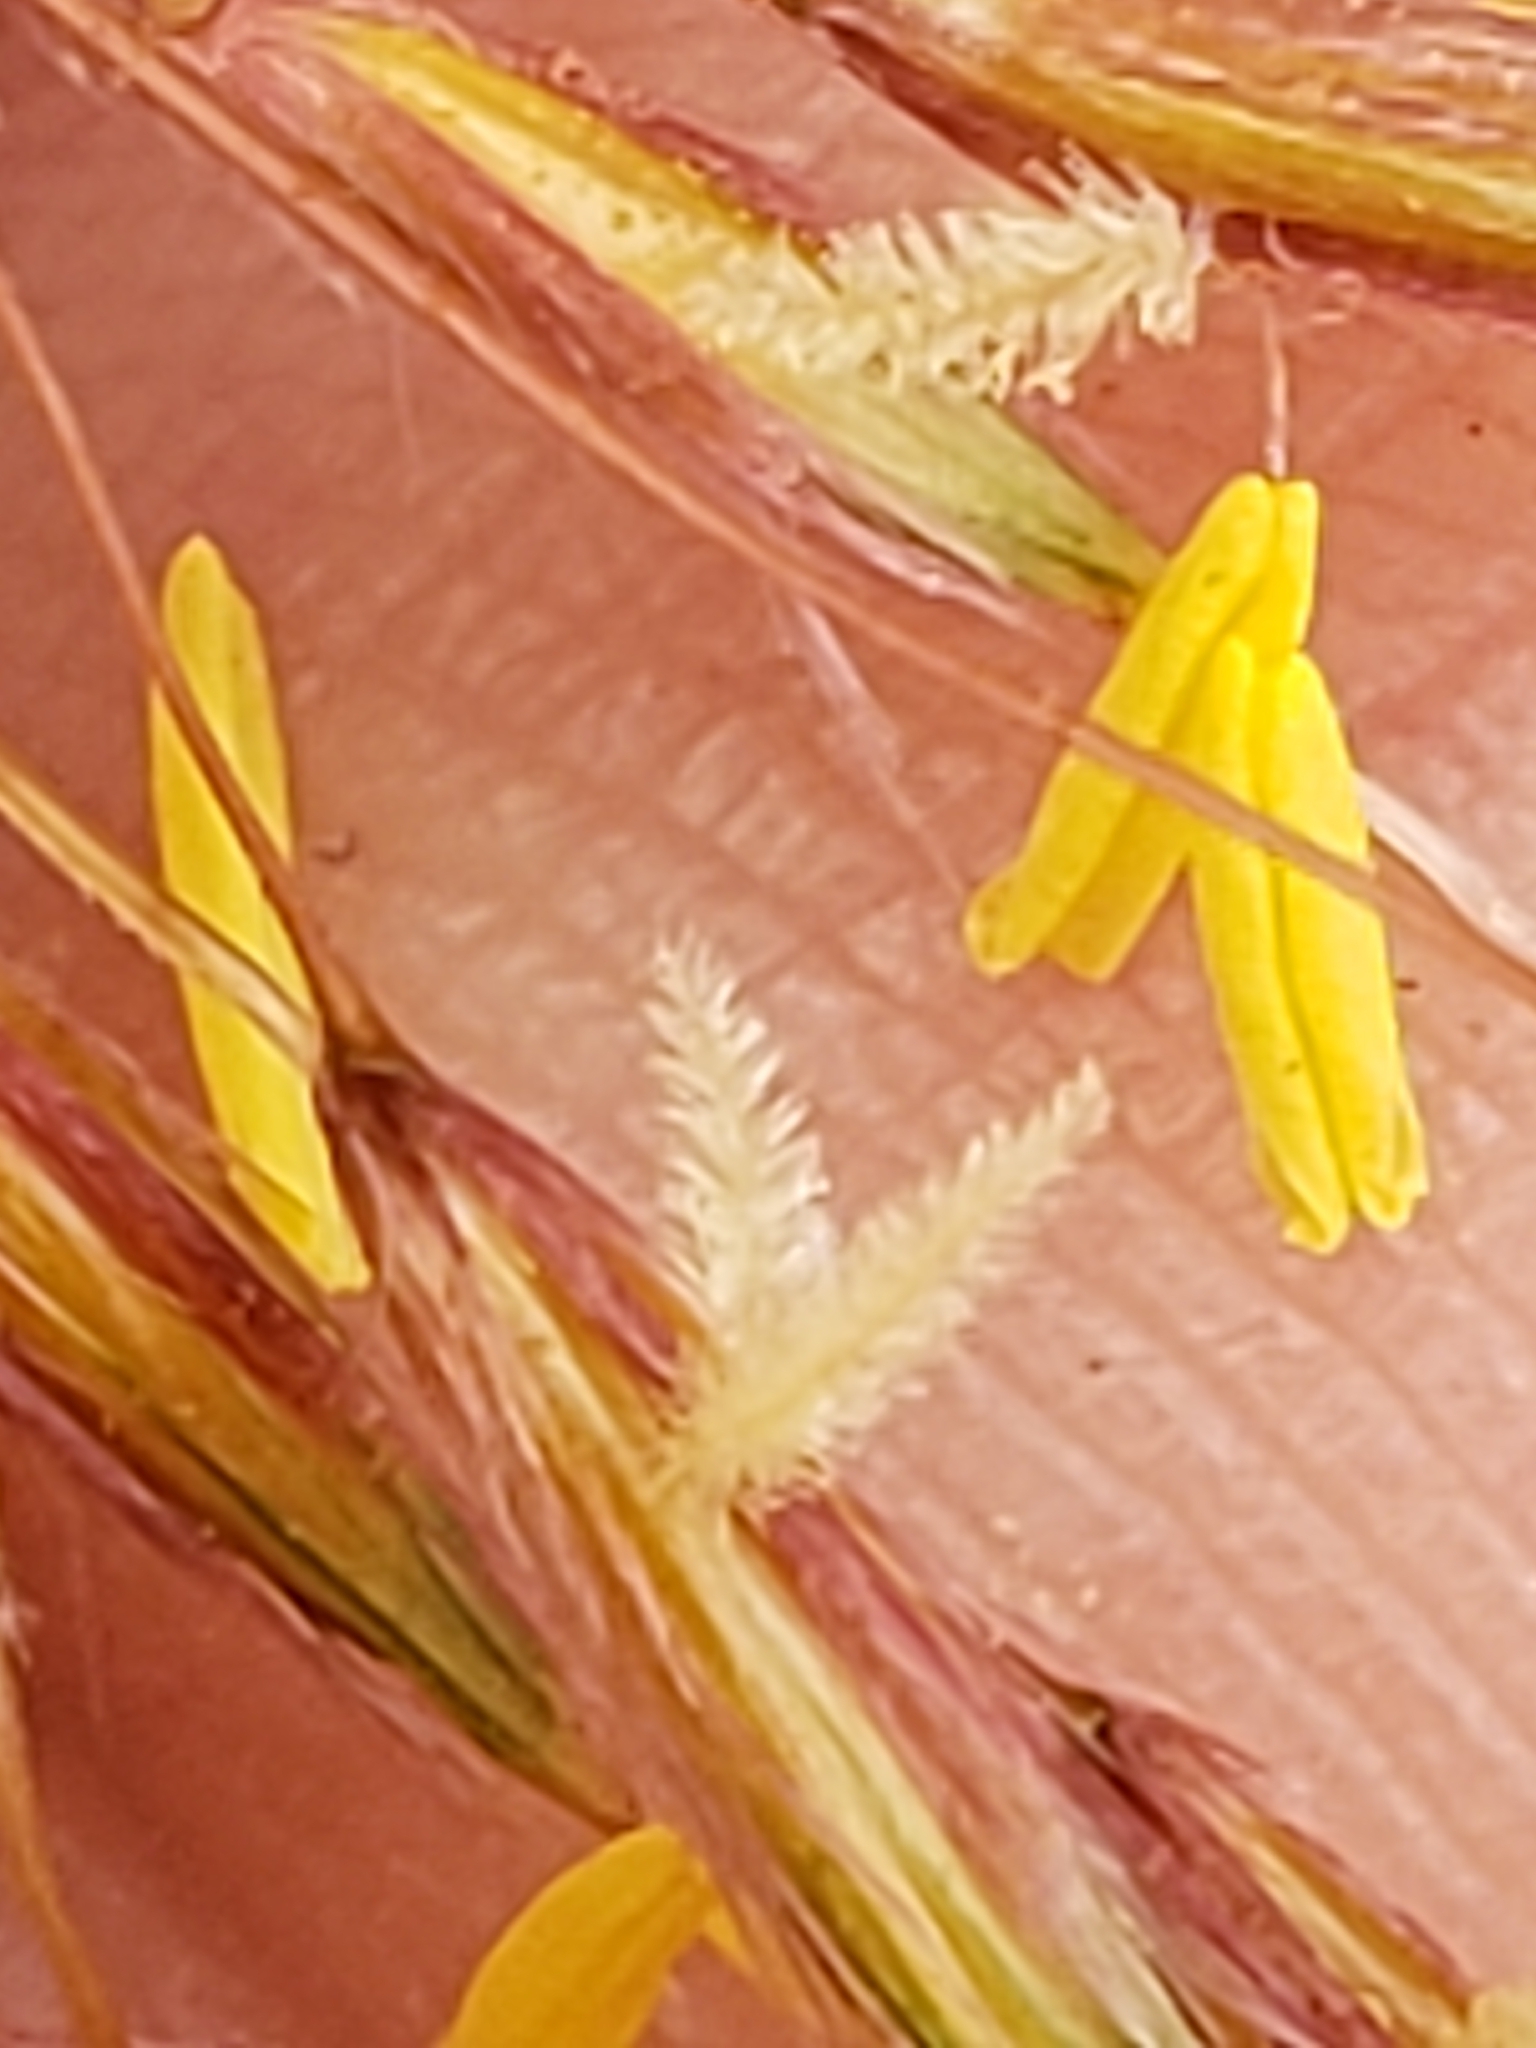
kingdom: Plantae
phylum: Tracheophyta
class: Liliopsida
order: Poales
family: Poaceae
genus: Sorghastrum
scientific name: Sorghastrum nutans
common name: Indian grass
